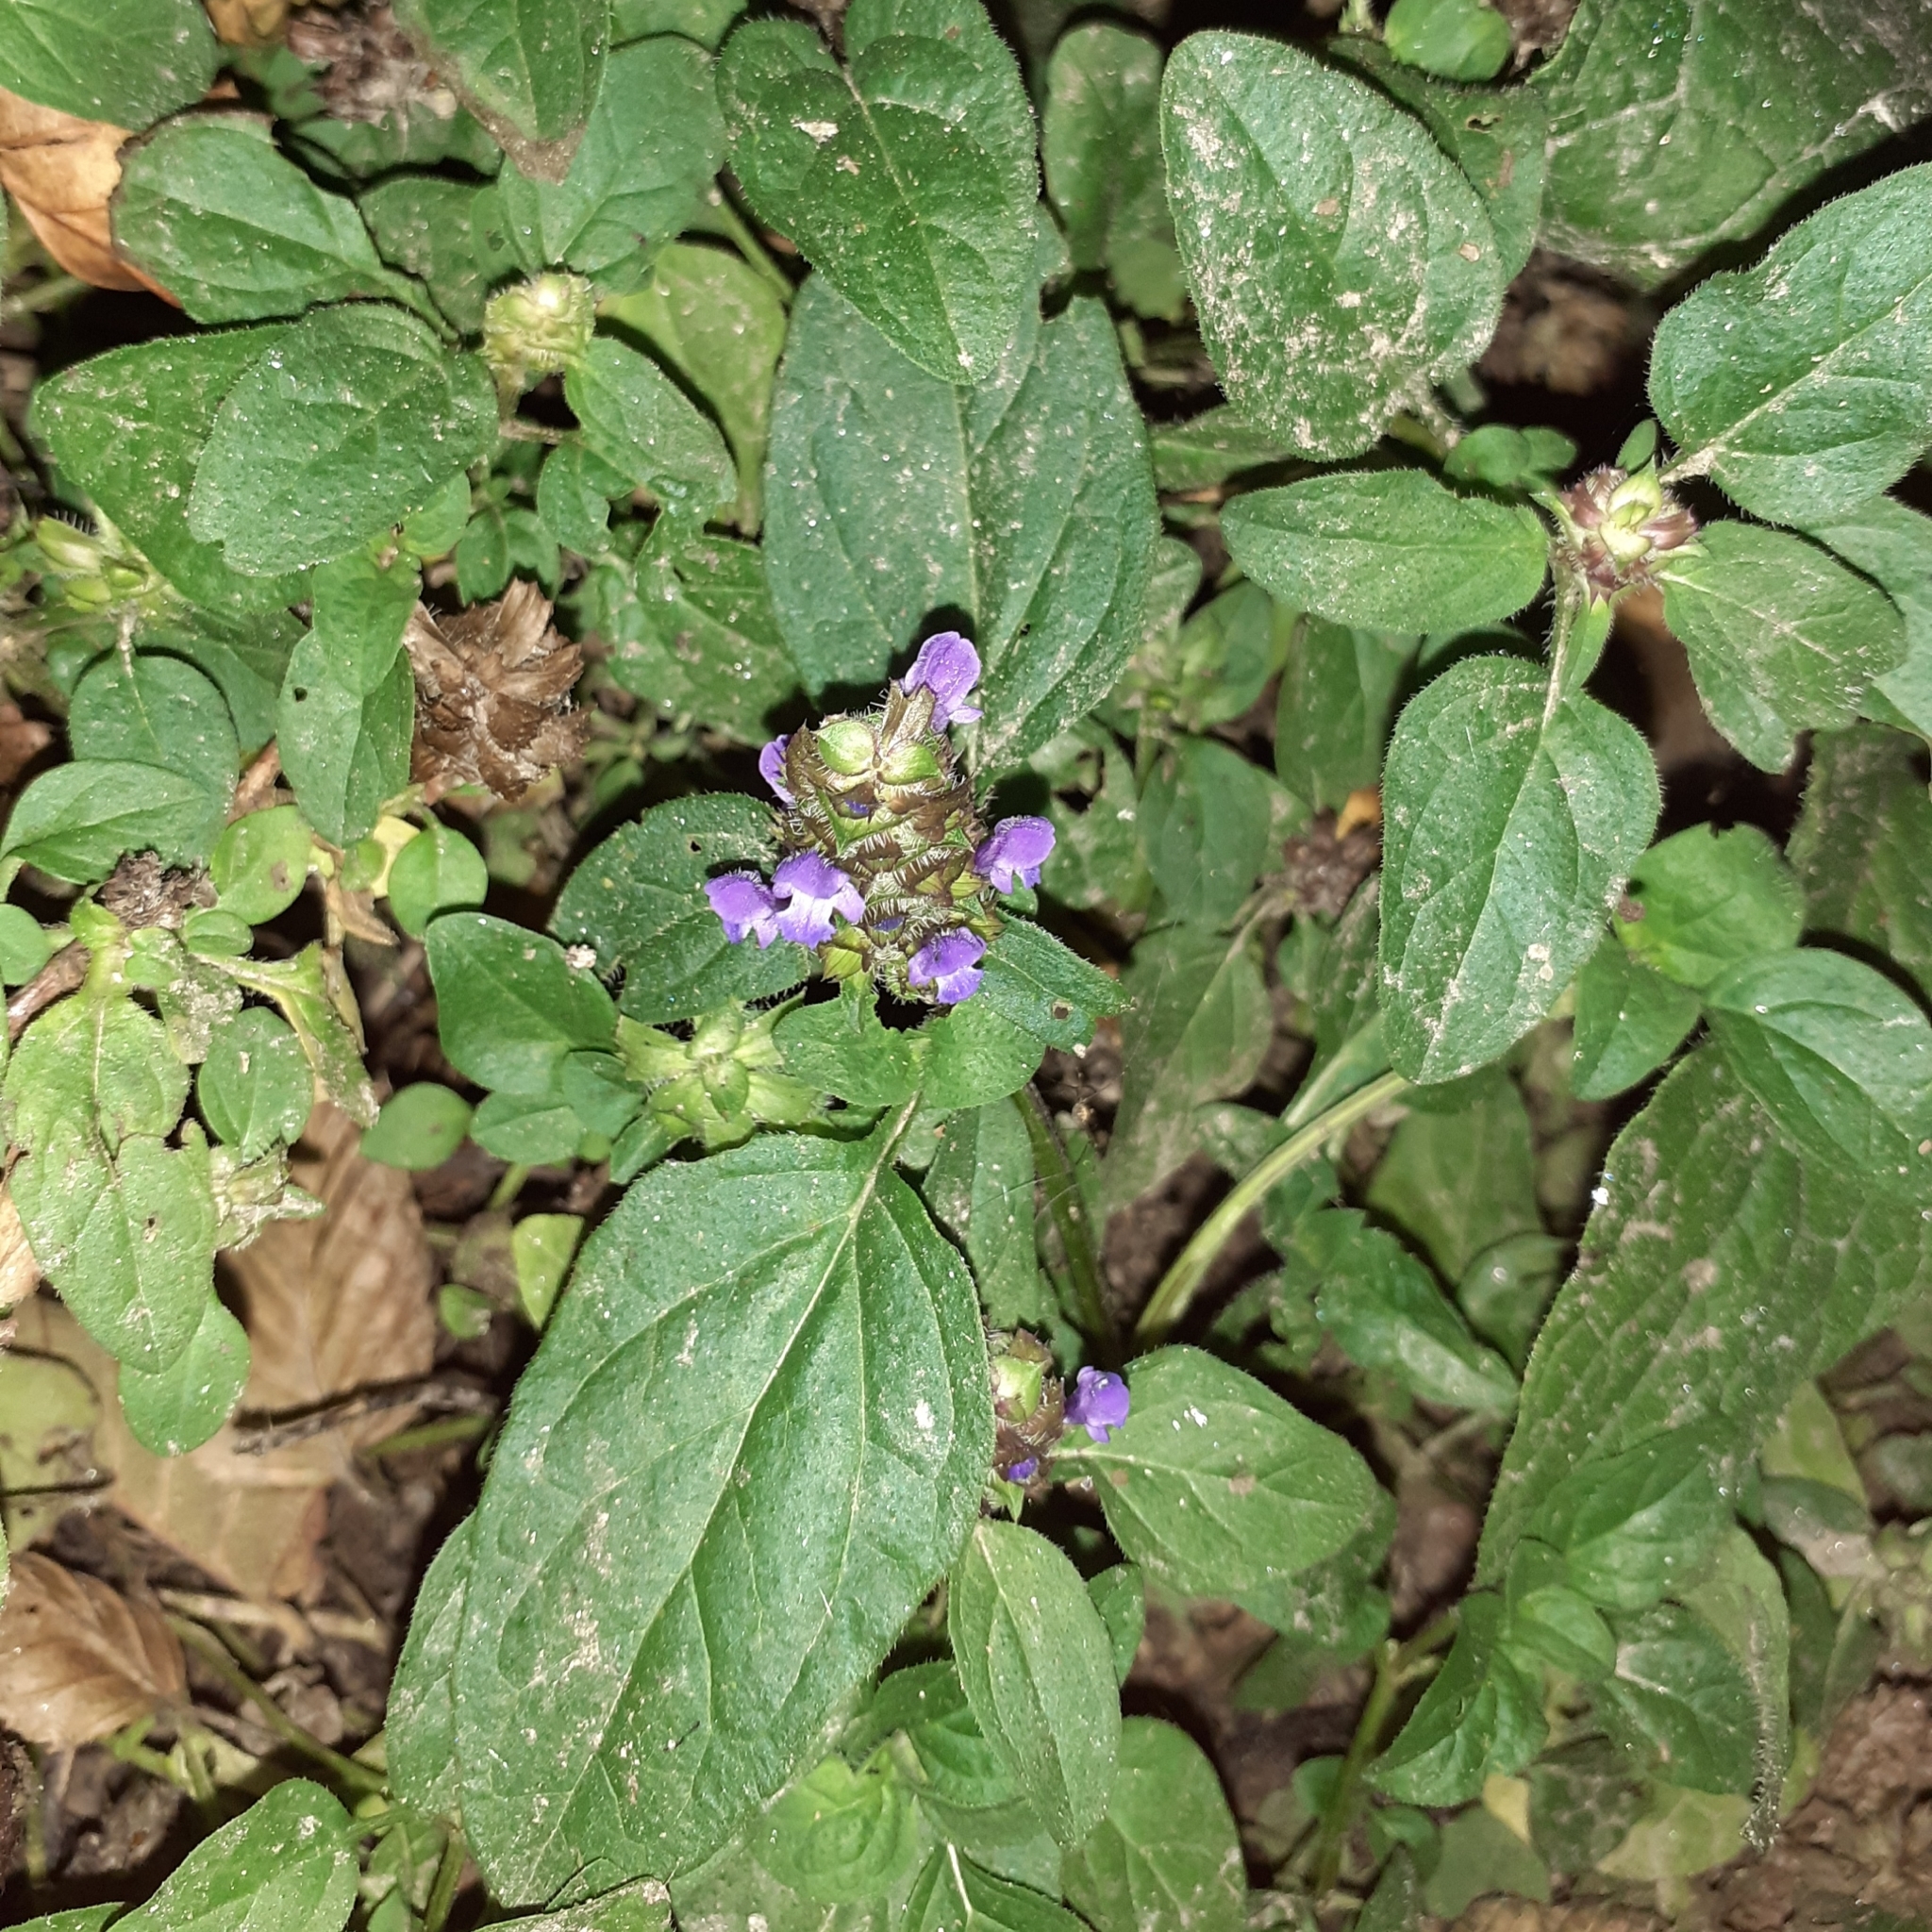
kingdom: Plantae
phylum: Tracheophyta
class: Magnoliopsida
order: Lamiales
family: Lamiaceae
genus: Prunella
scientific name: Prunella vulgaris
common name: Heal-all
